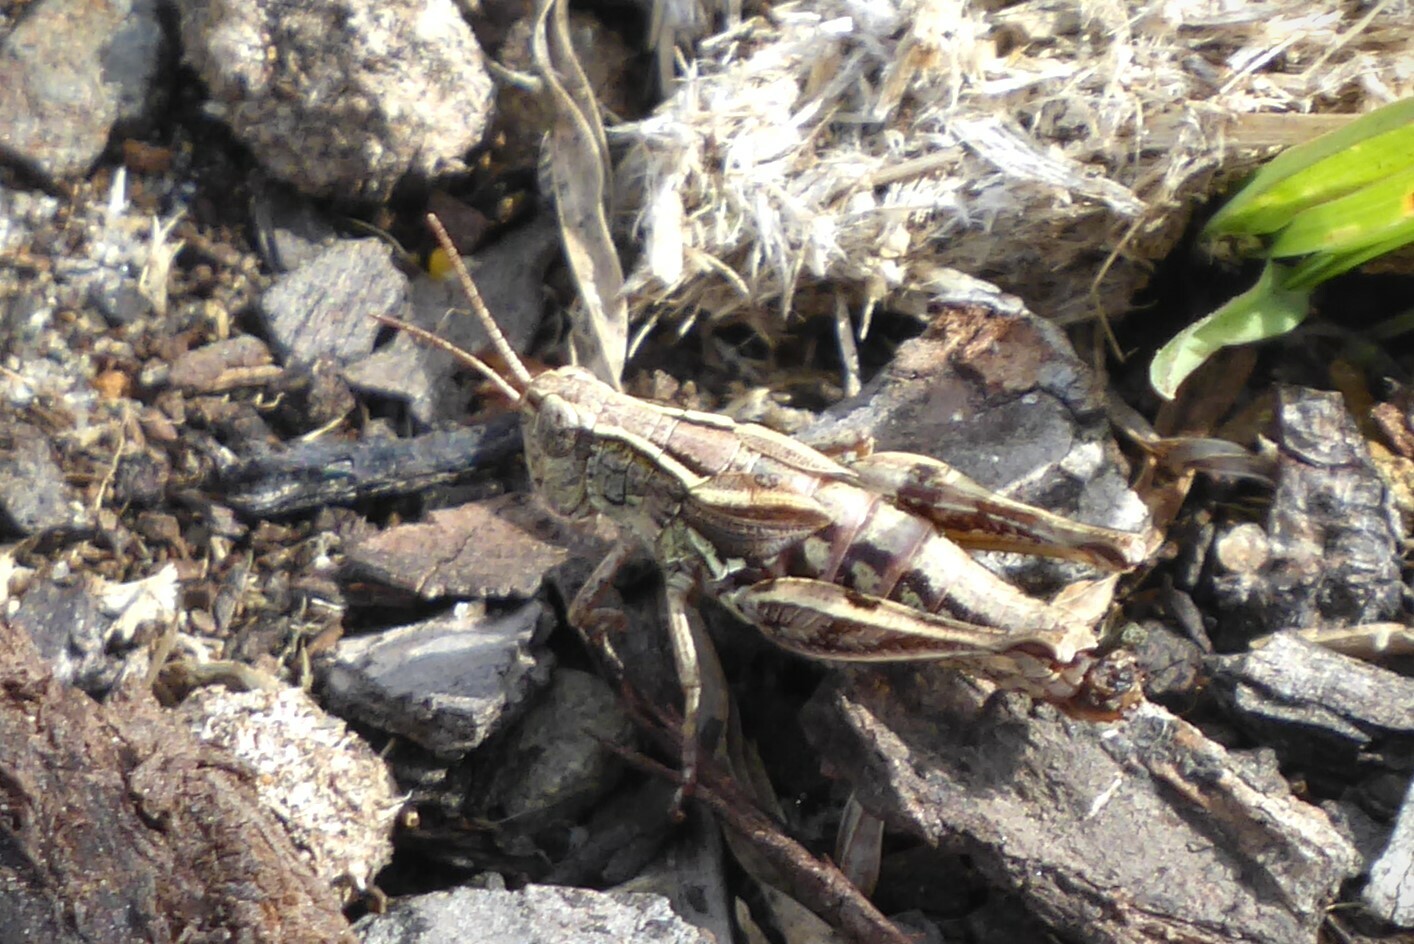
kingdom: Animalia
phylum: Arthropoda
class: Insecta
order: Orthoptera
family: Acrididae
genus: Phaulacridium
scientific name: Phaulacridium marginale
